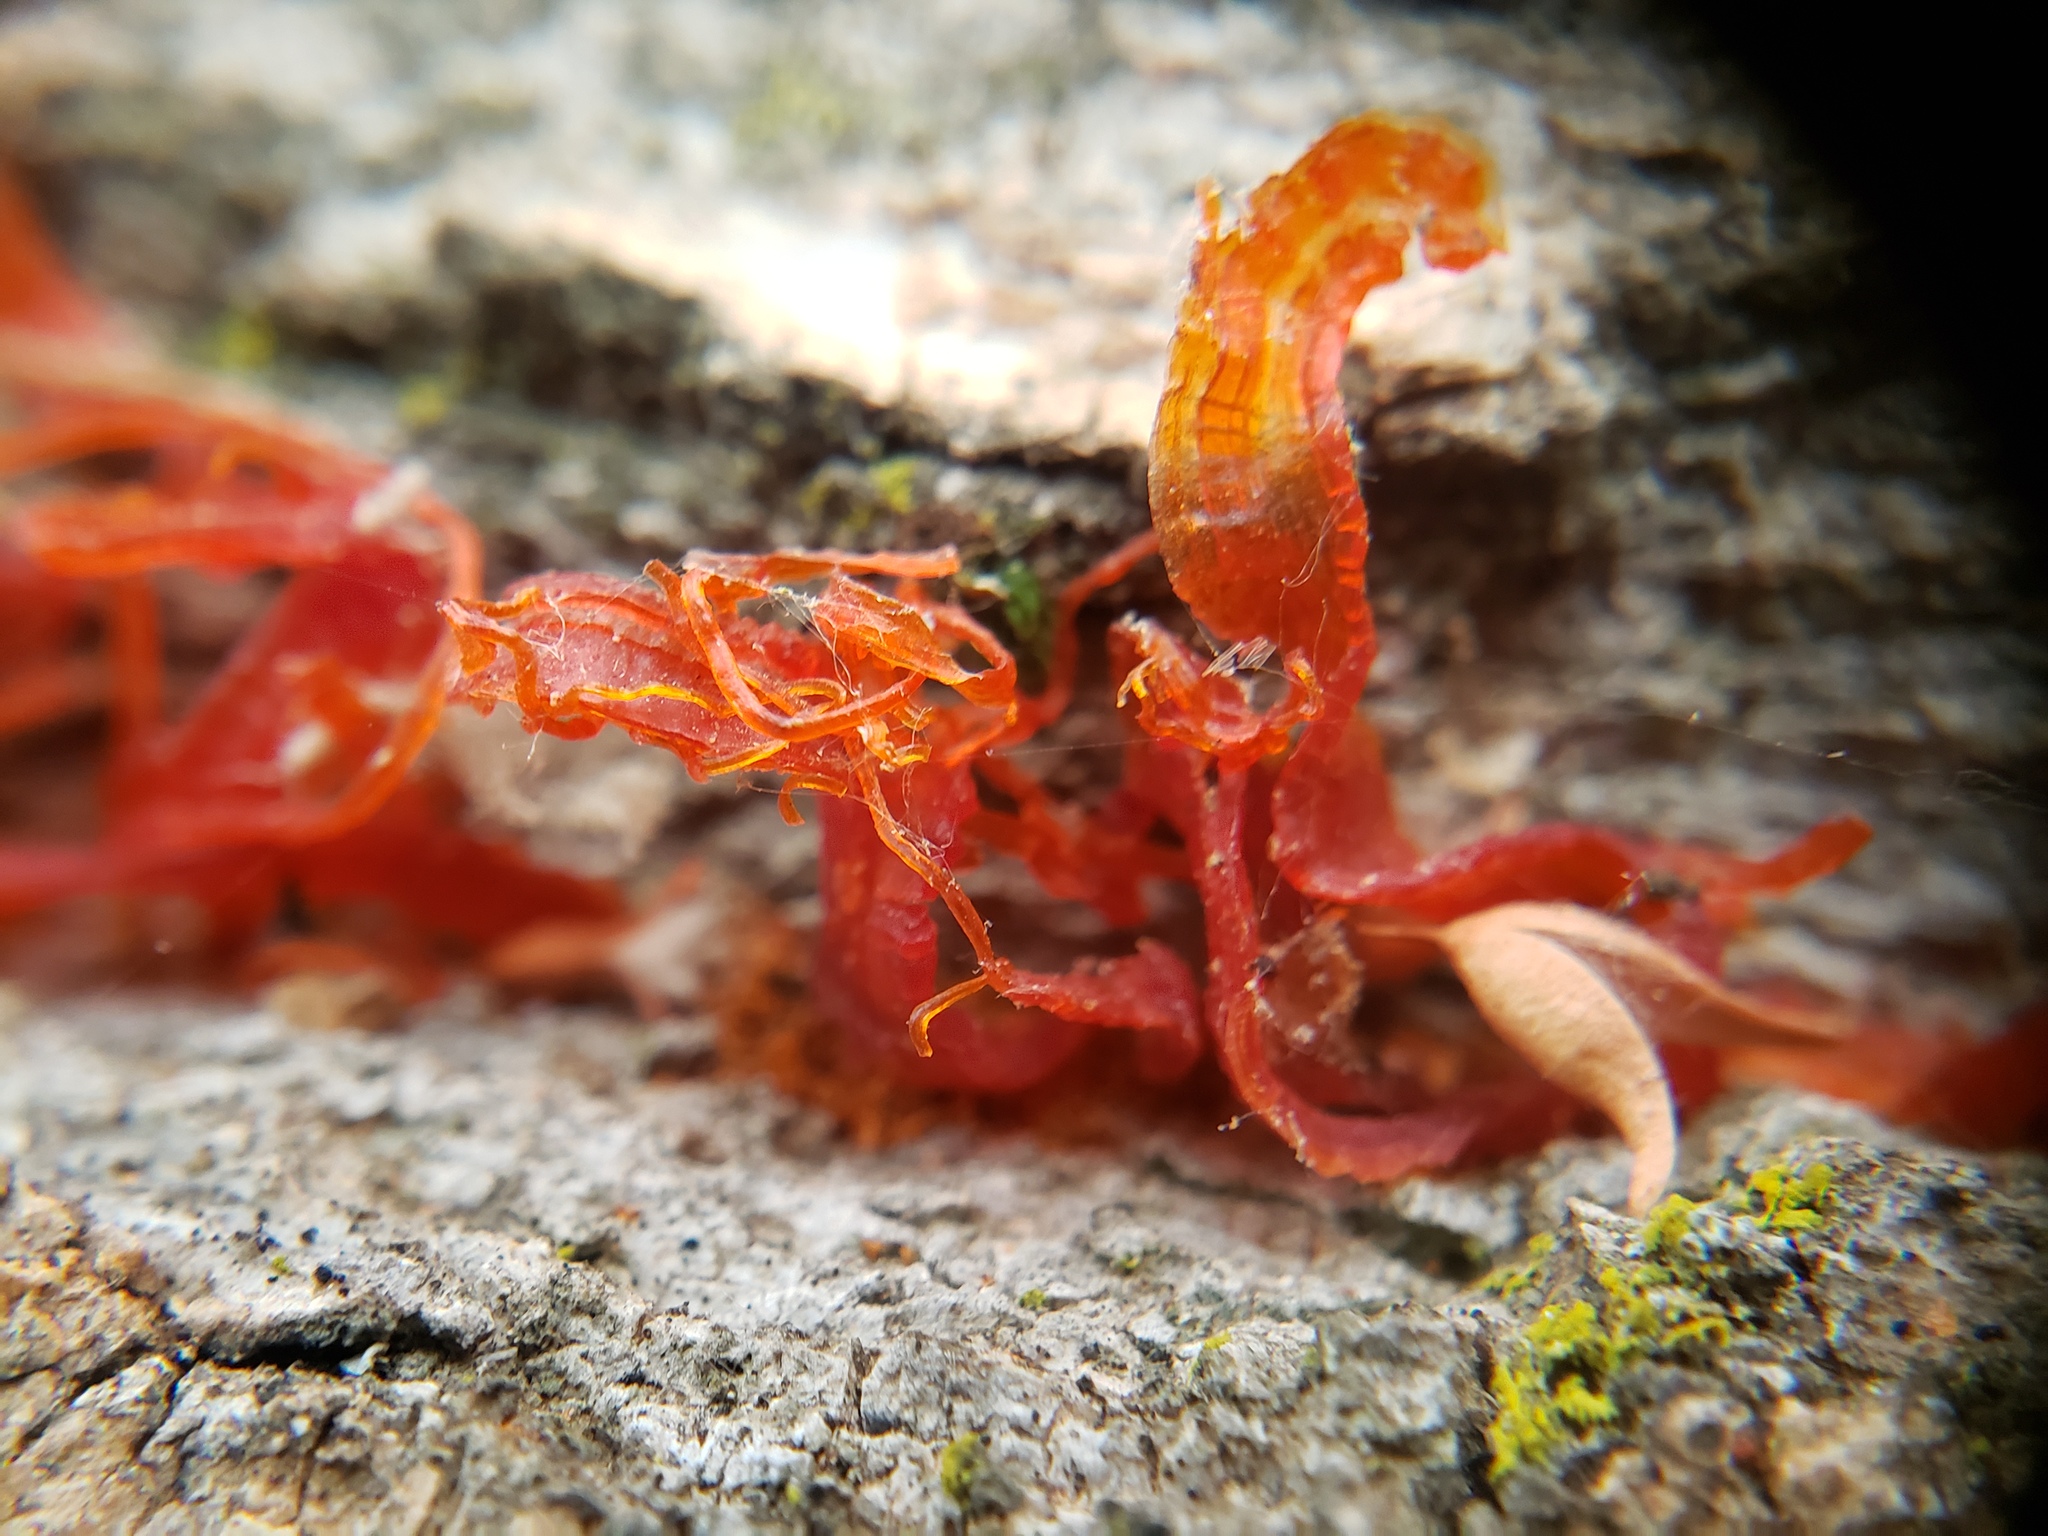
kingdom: Fungi
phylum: Ascomycota
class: Sordariomycetes
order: Diaporthales
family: Valsaceae
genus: Cytospora
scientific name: Cytospora chrysosperma
